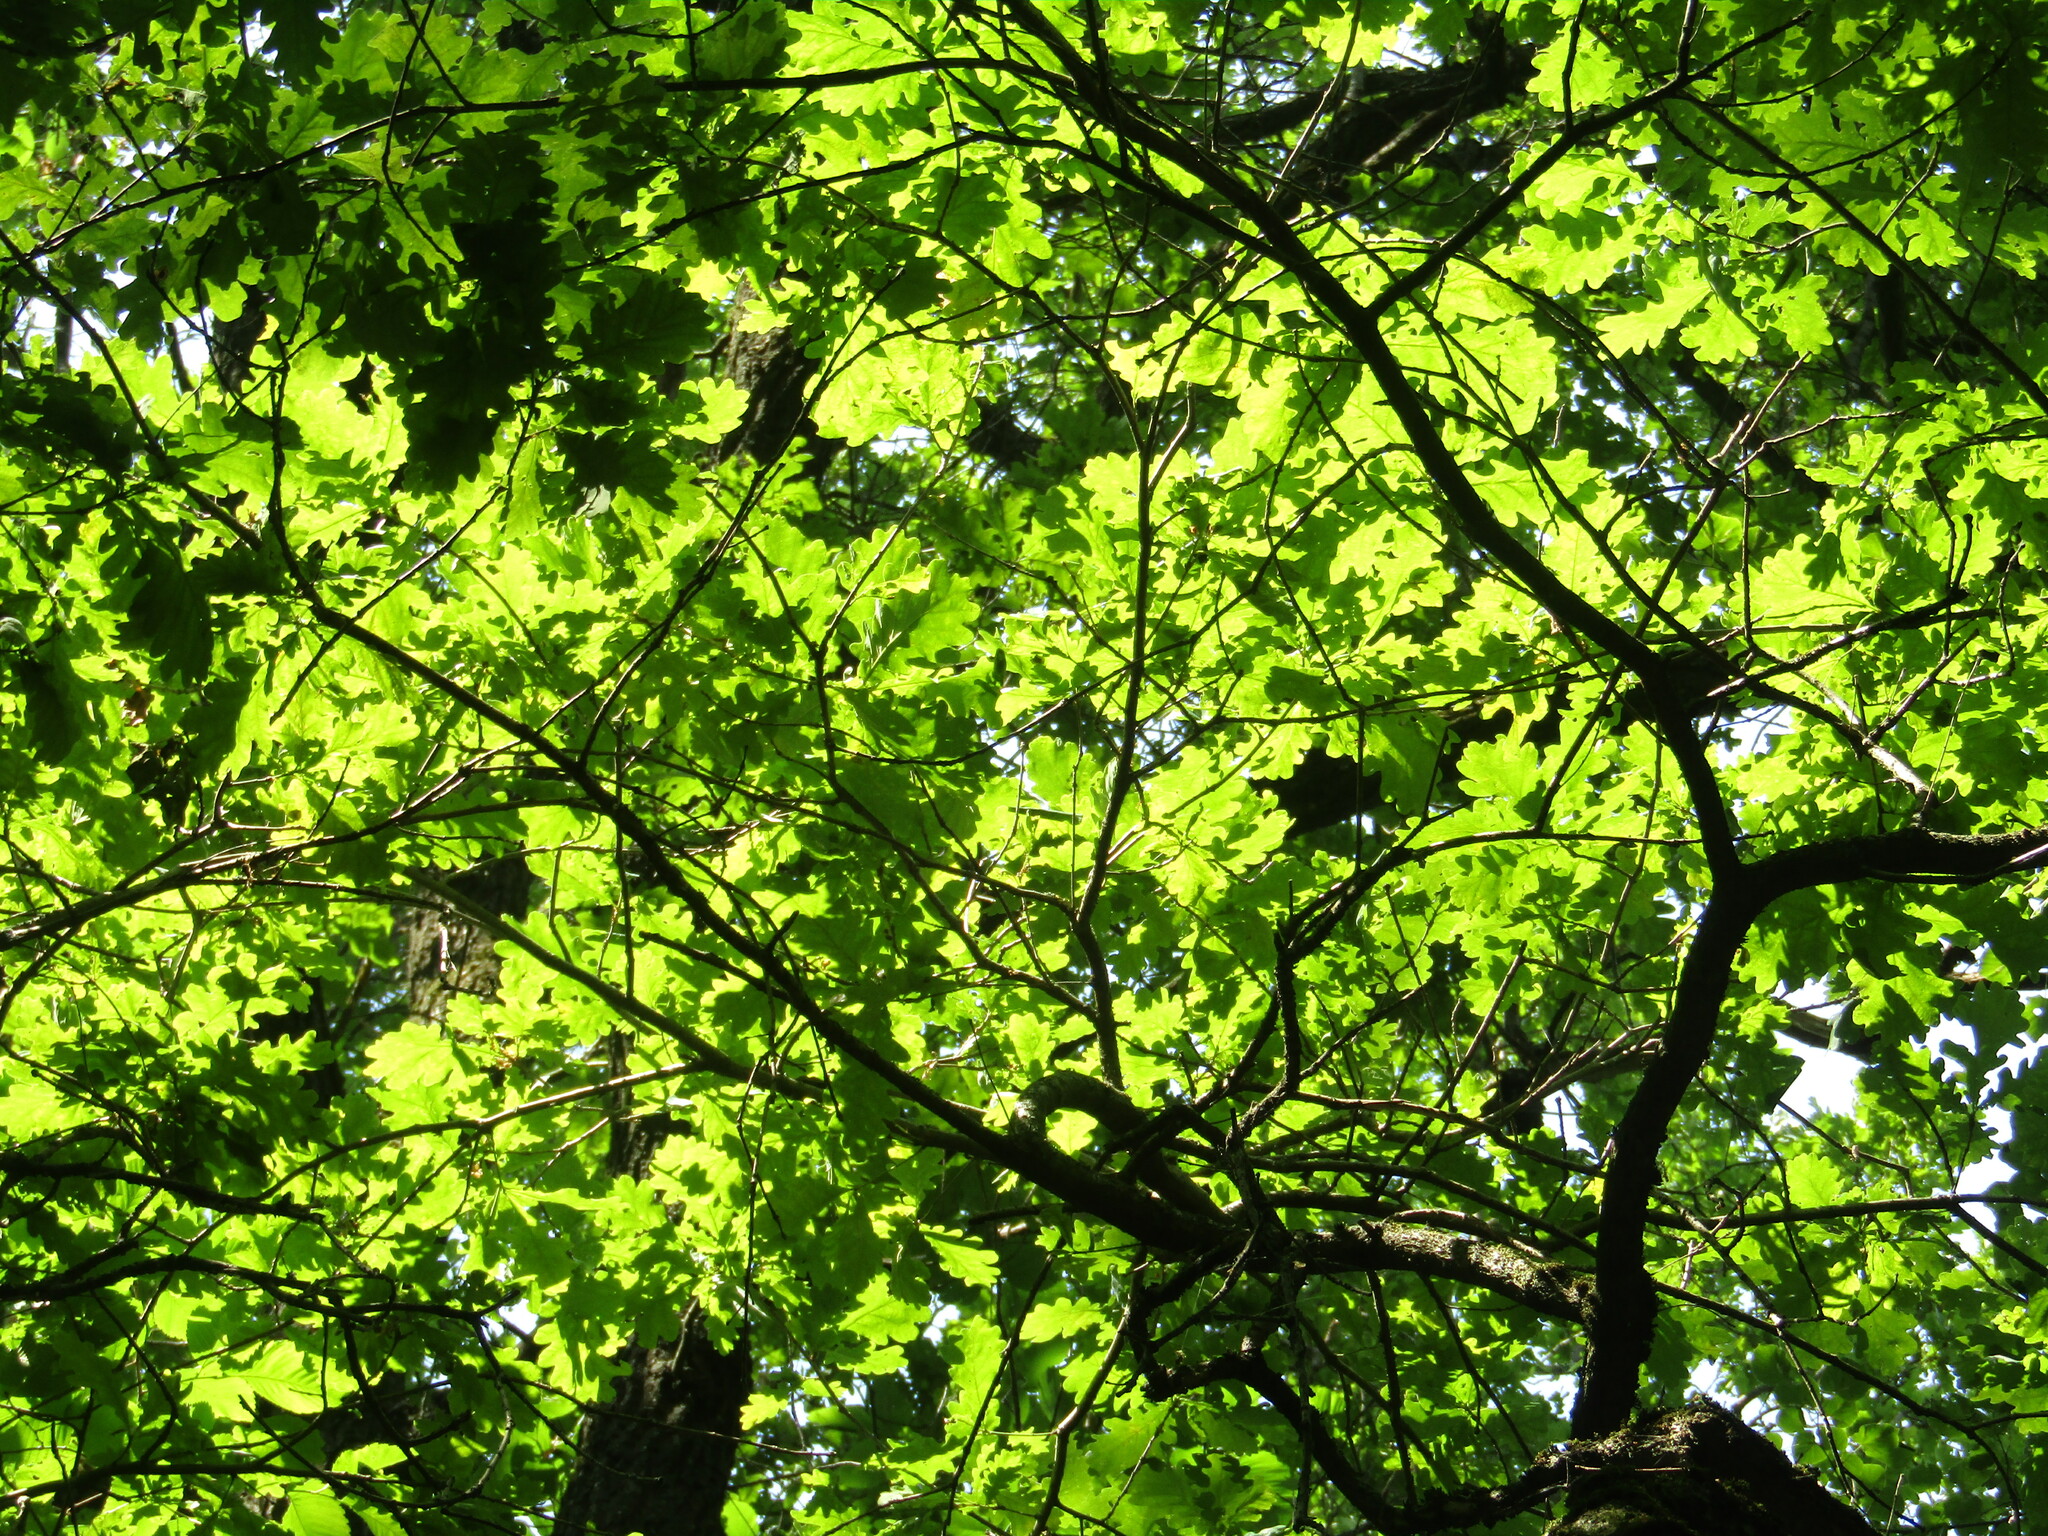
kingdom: Plantae
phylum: Tracheophyta
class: Magnoliopsida
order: Fagales
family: Fagaceae
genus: Quercus
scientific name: Quercus robur
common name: Pedunculate oak
